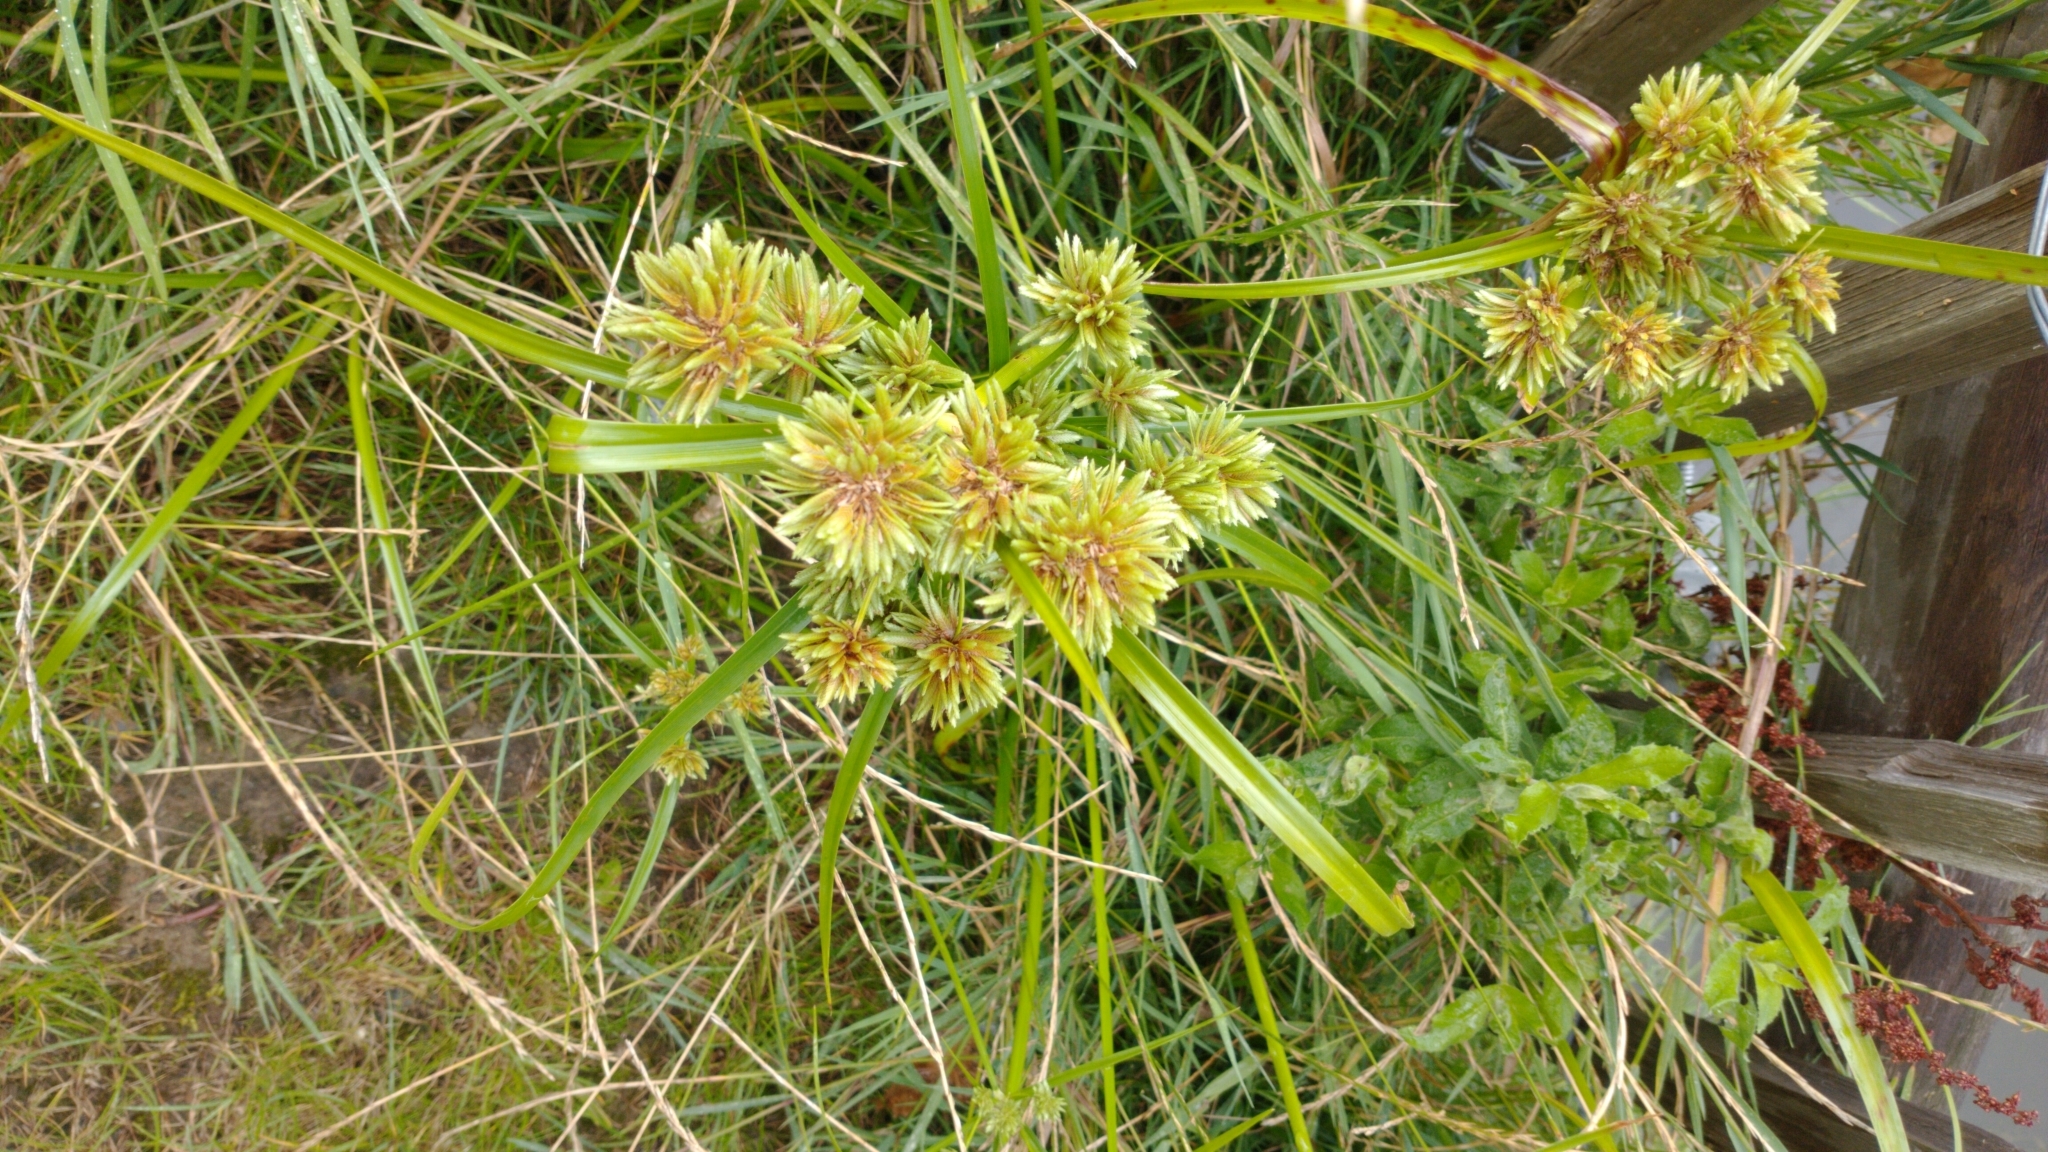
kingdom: Plantae
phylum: Tracheophyta
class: Liliopsida
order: Poales
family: Cyperaceae
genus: Cyperus
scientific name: Cyperus eragrostis
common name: Tall flatsedge
